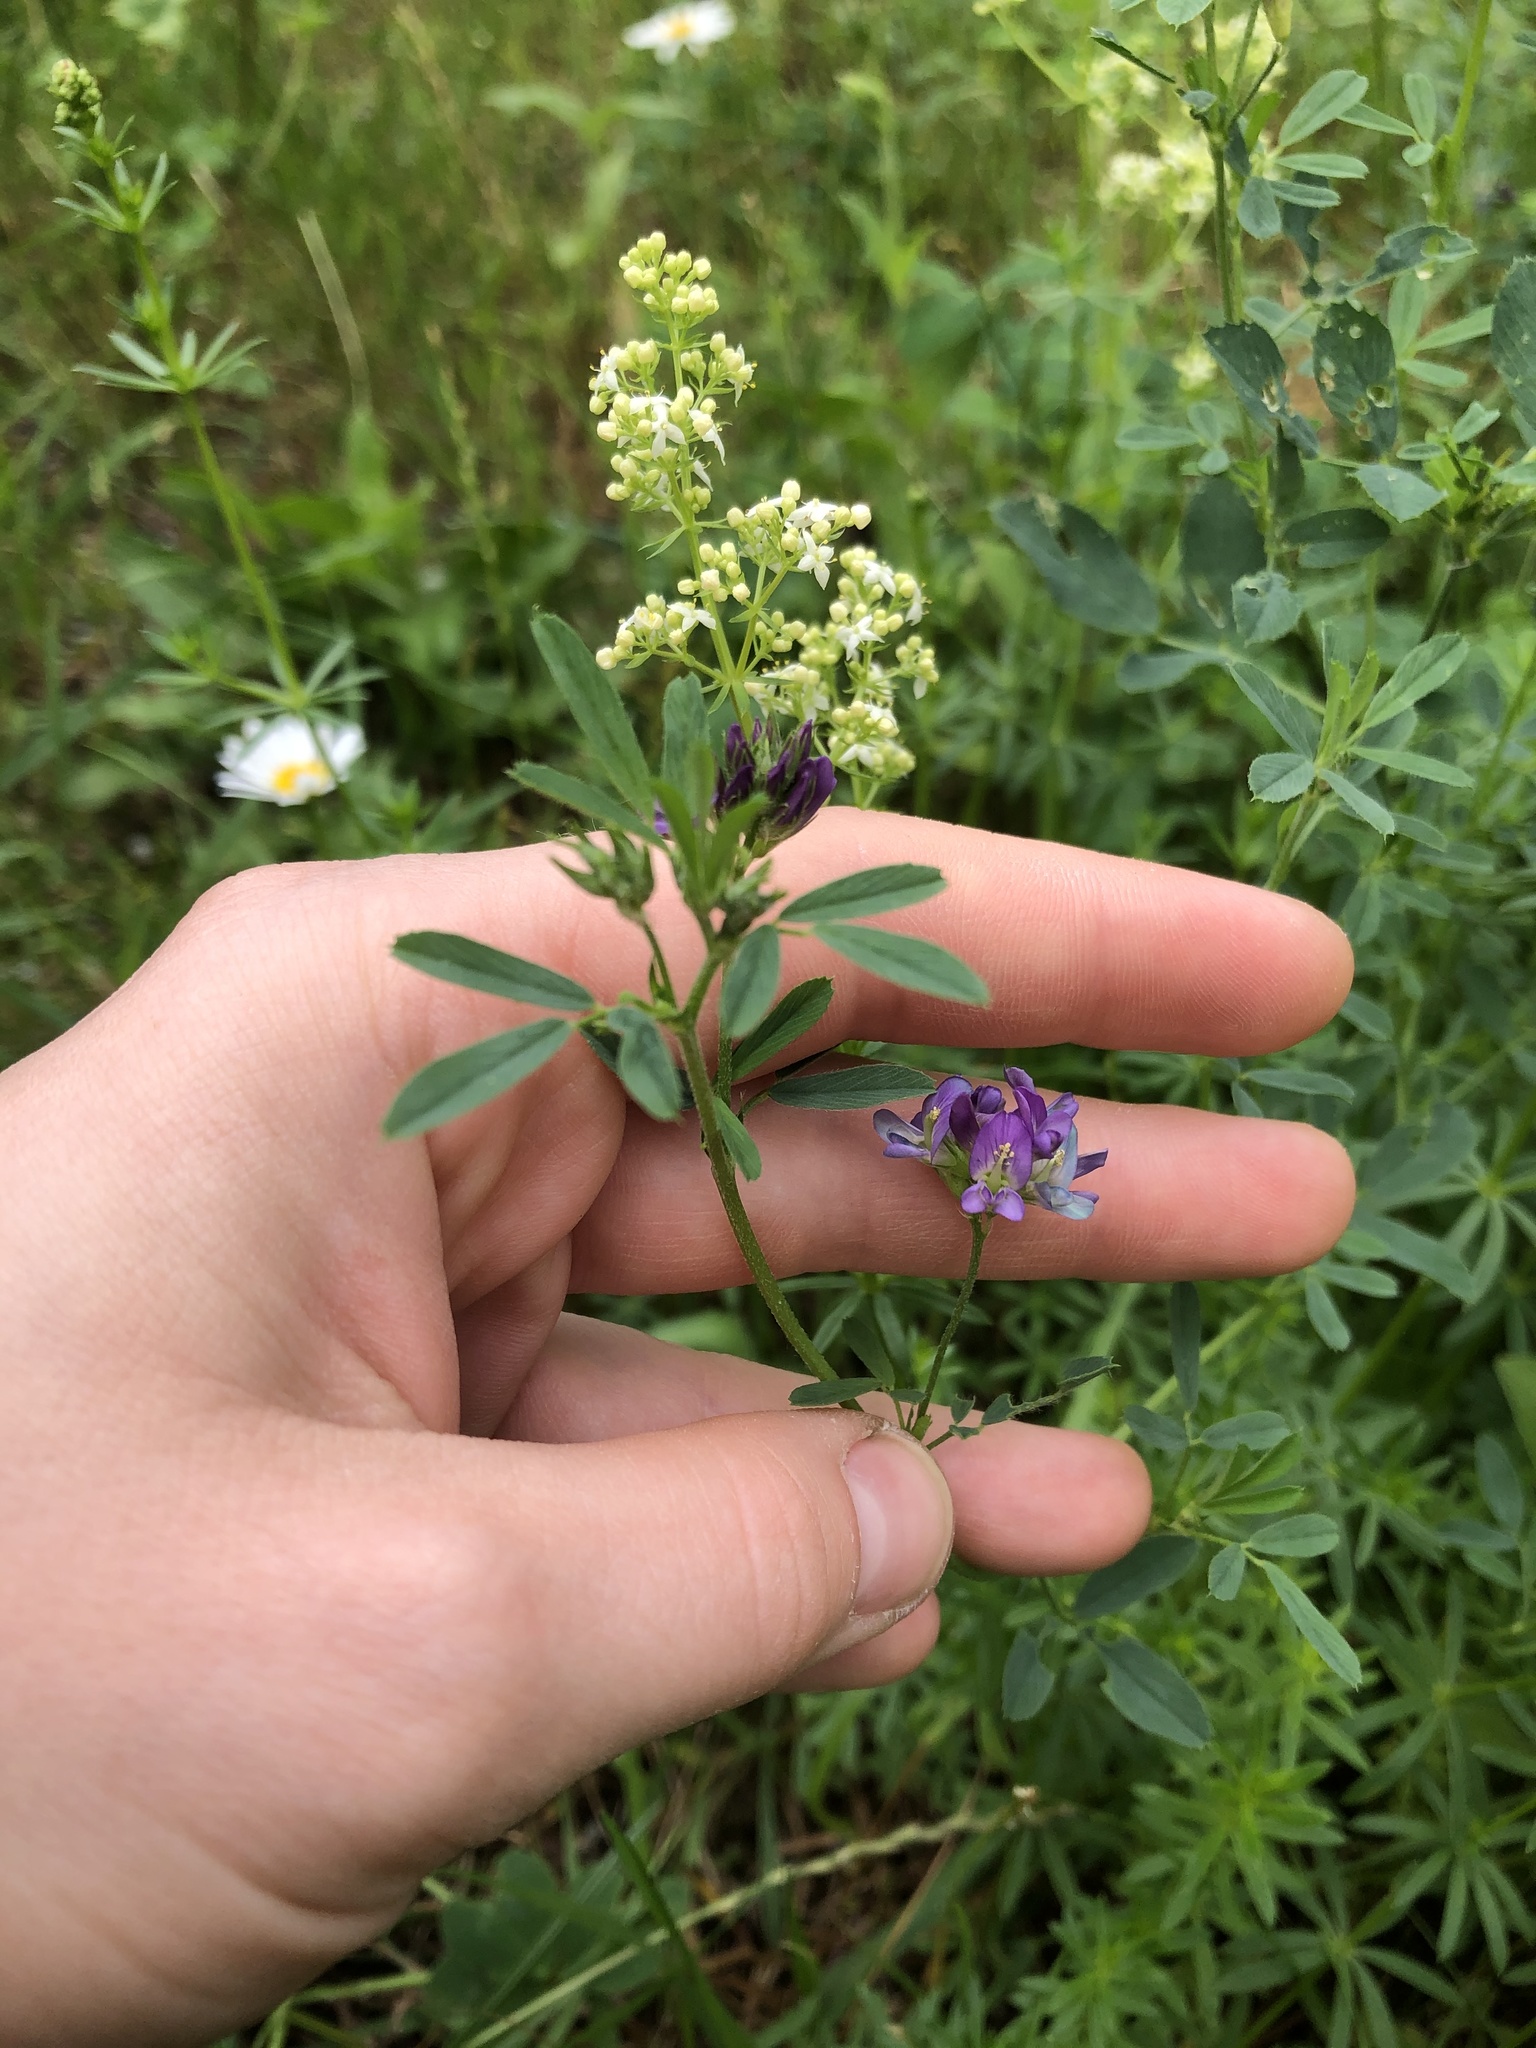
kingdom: Plantae
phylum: Tracheophyta
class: Magnoliopsida
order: Fabales
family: Fabaceae
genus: Medicago
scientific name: Medicago varia
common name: Sand lucerne
